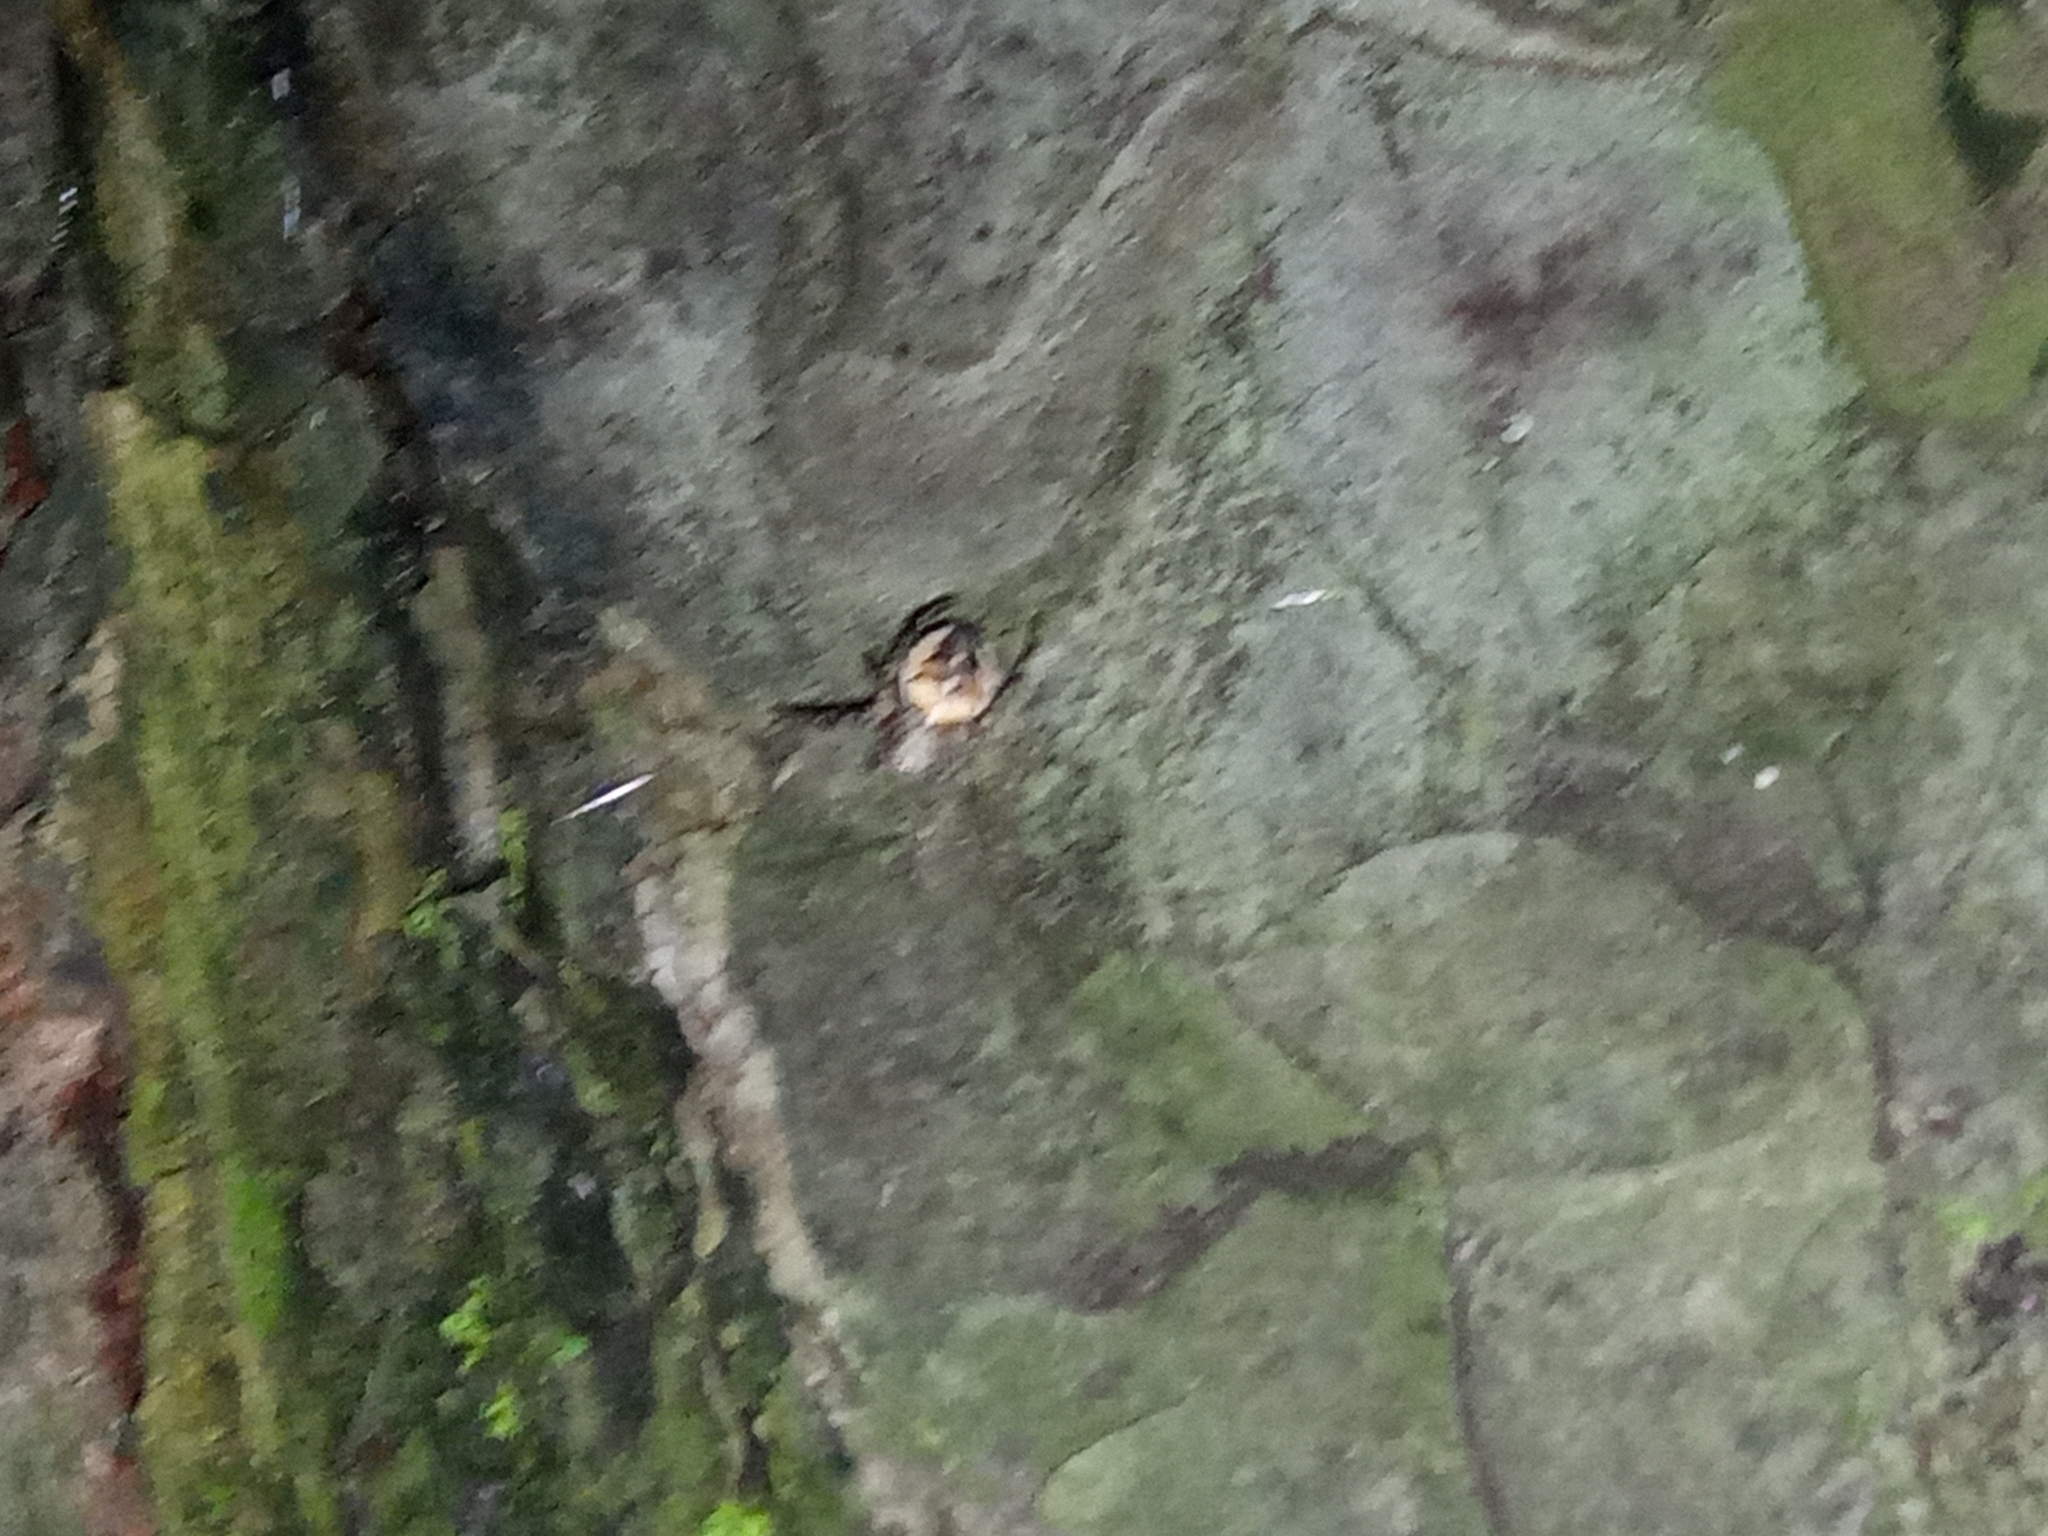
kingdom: Animalia
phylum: Arthropoda
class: Arachnida
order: Araneae
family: Araneidae
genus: Araneus
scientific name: Araneus diadematus
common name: Cross orbweaver
